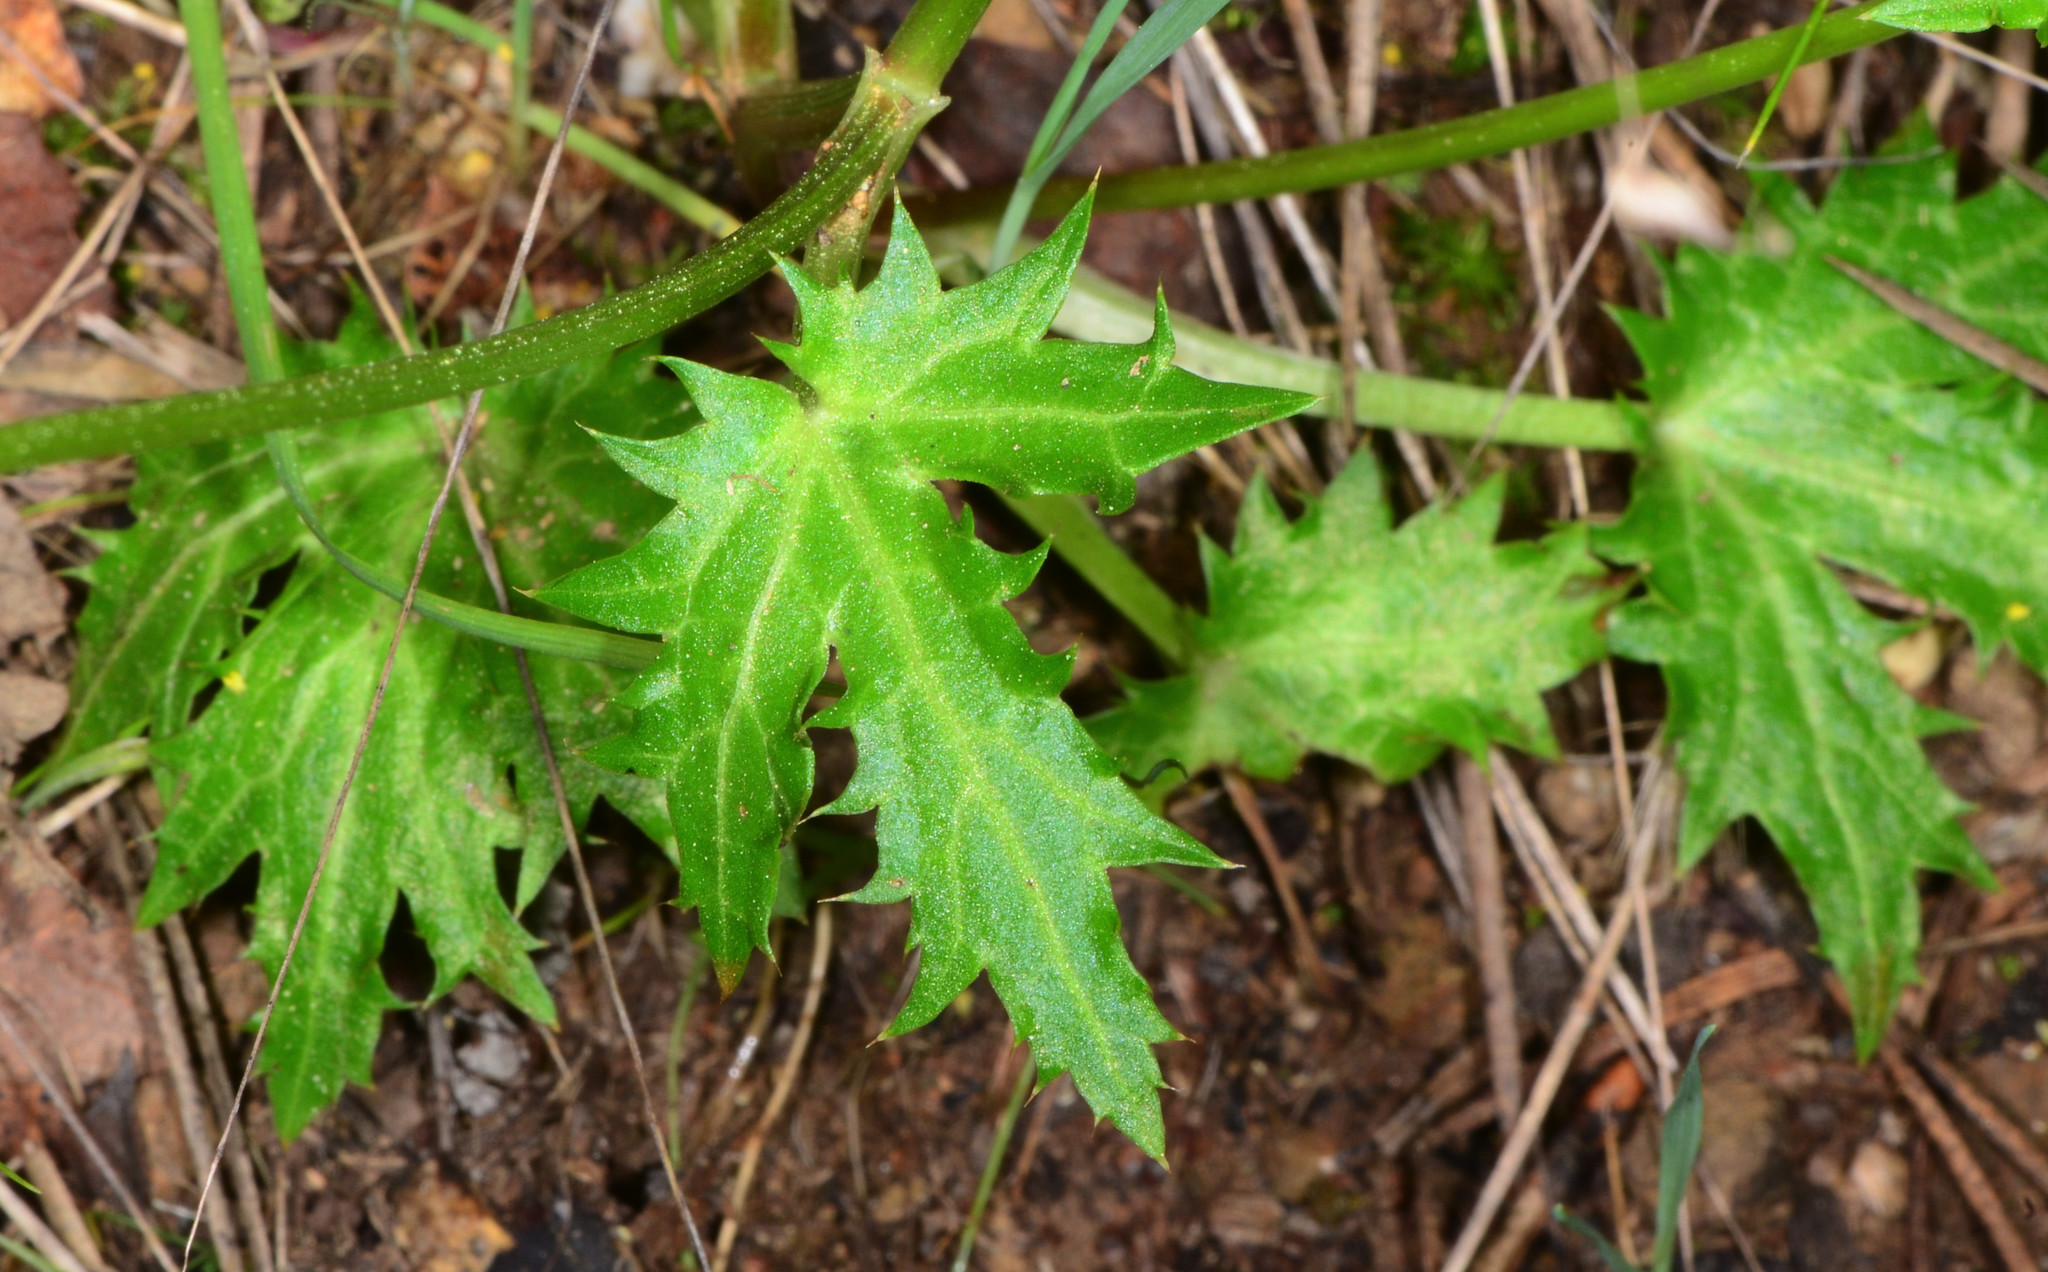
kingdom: Plantae
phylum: Tracheophyta
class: Magnoliopsida
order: Apiales
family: Apiaceae
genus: Sanicula
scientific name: Sanicula laciniata
